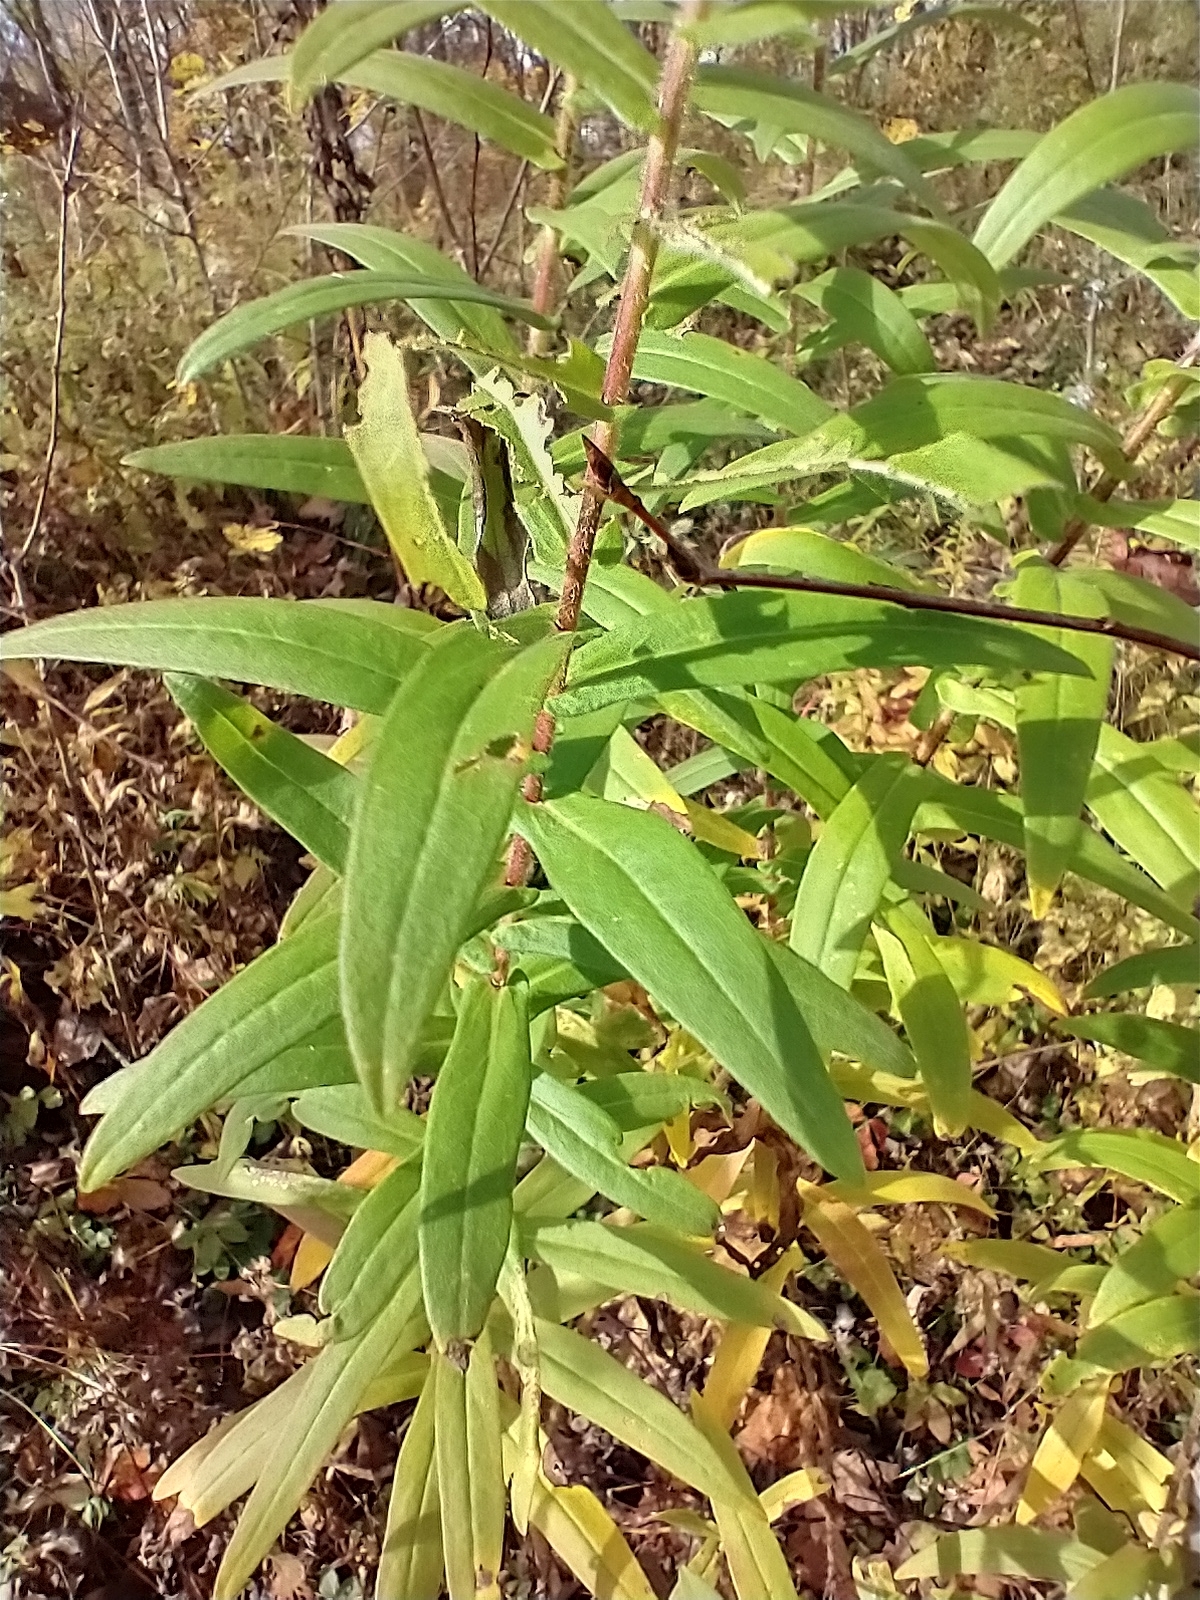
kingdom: Plantae
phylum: Tracheophyta
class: Magnoliopsida
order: Asterales
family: Asteraceae
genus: Symphyotrichum
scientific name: Symphyotrichum novae-angliae
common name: Michaelmas daisy
